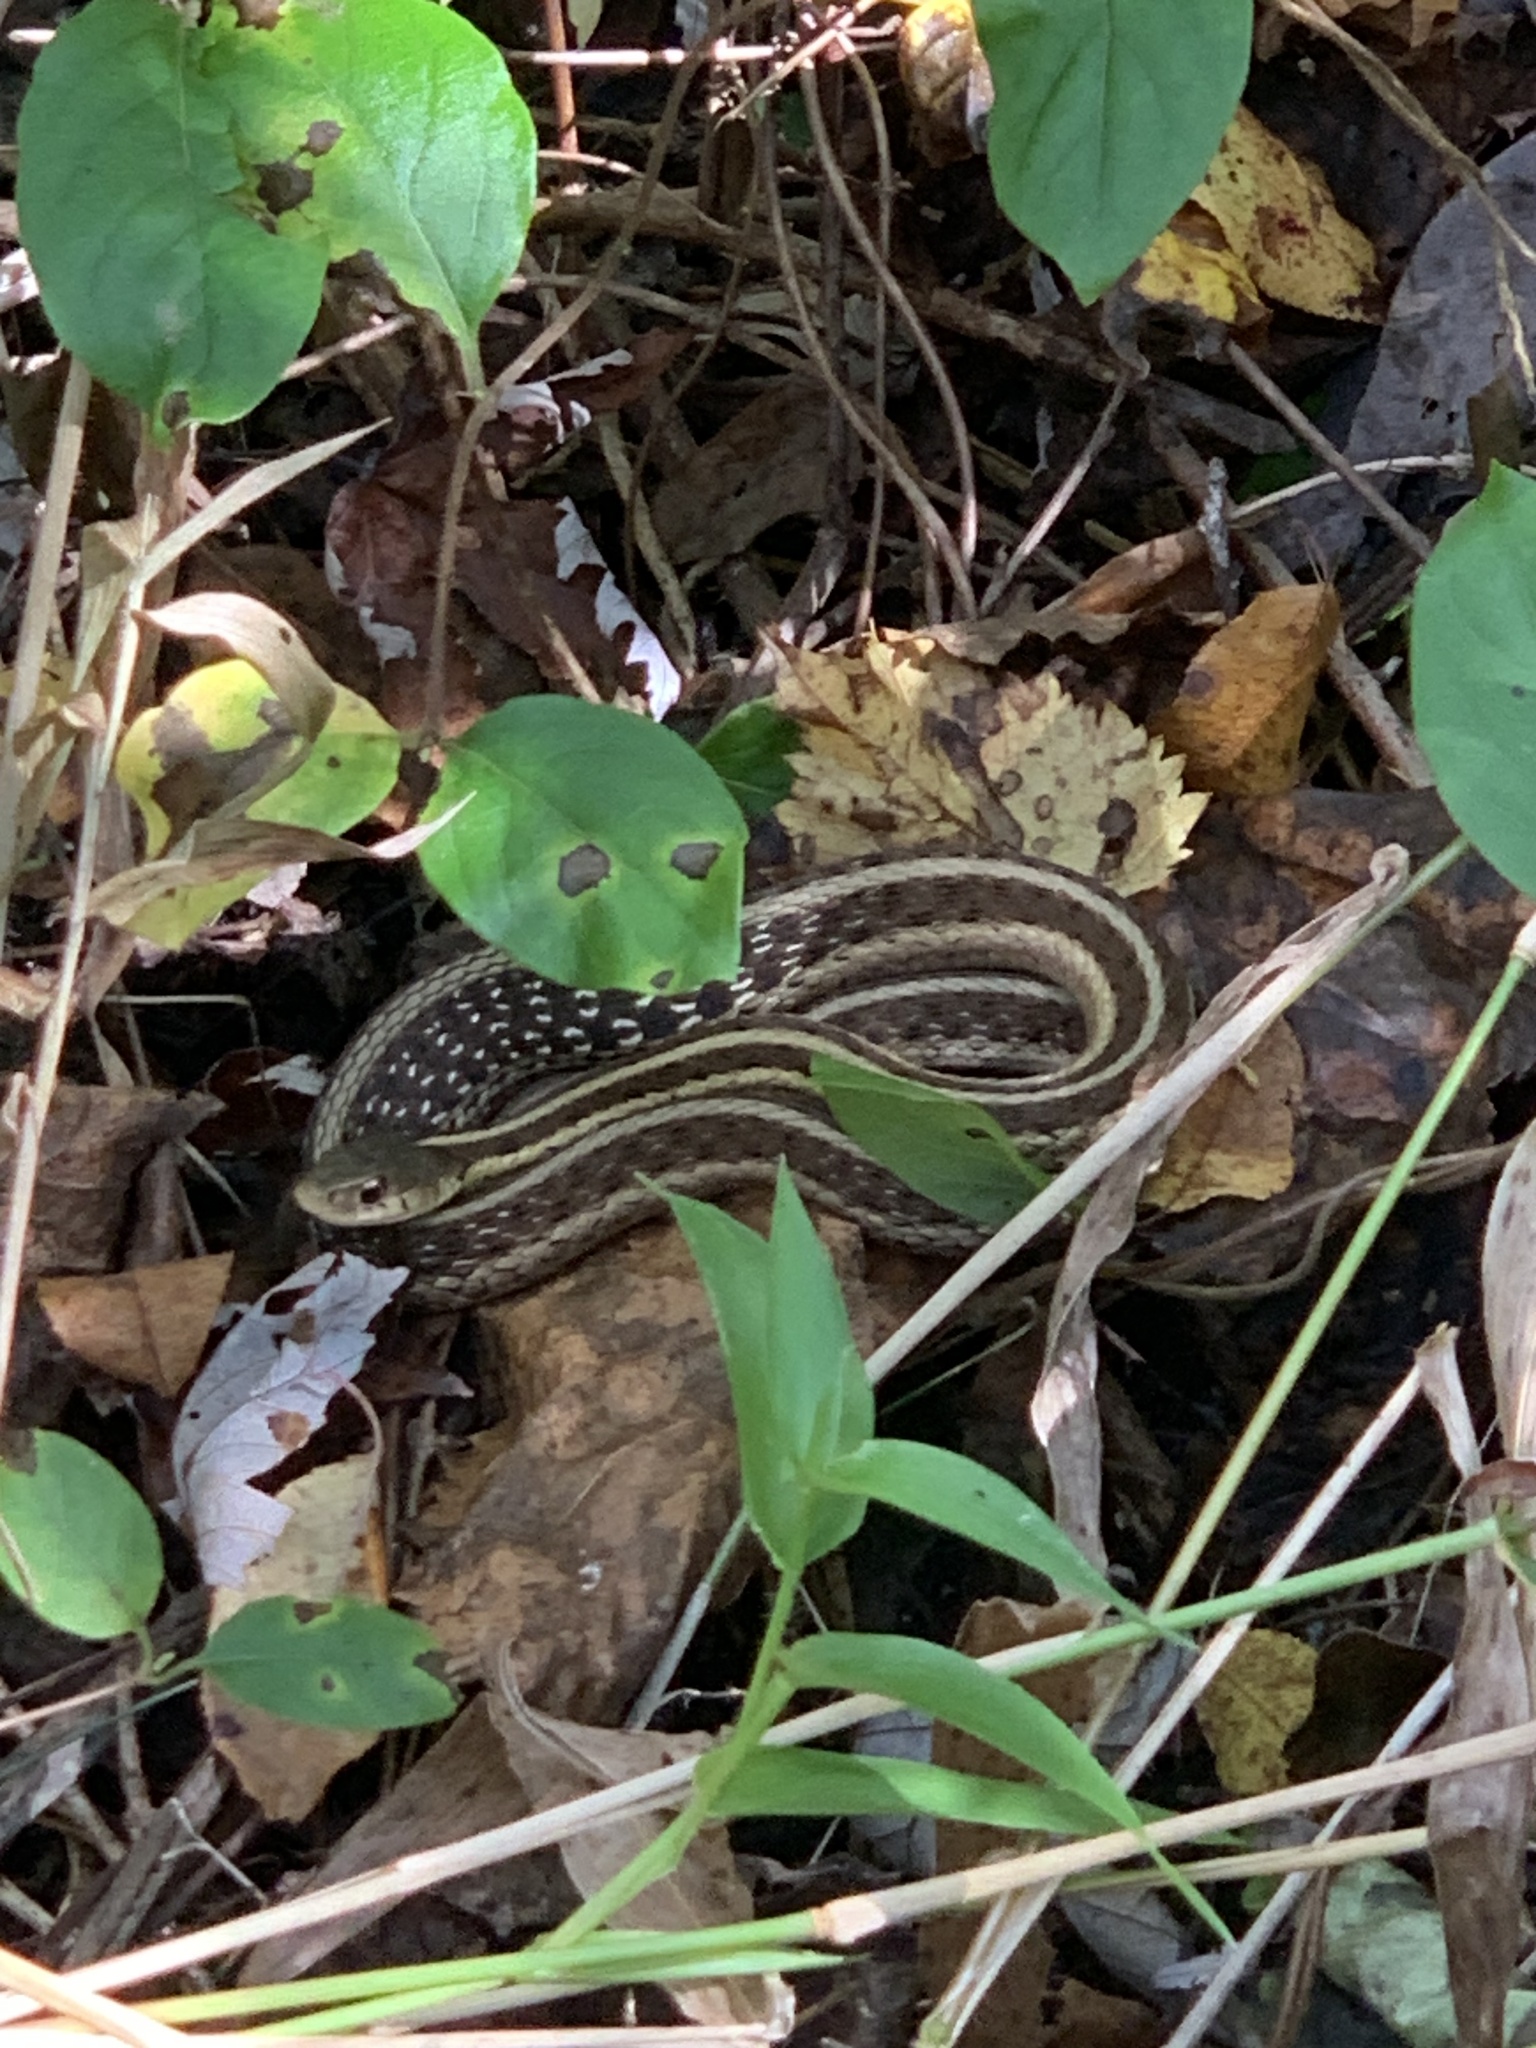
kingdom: Animalia
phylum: Chordata
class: Squamata
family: Colubridae
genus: Thamnophis
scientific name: Thamnophis sirtalis
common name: Common garter snake
